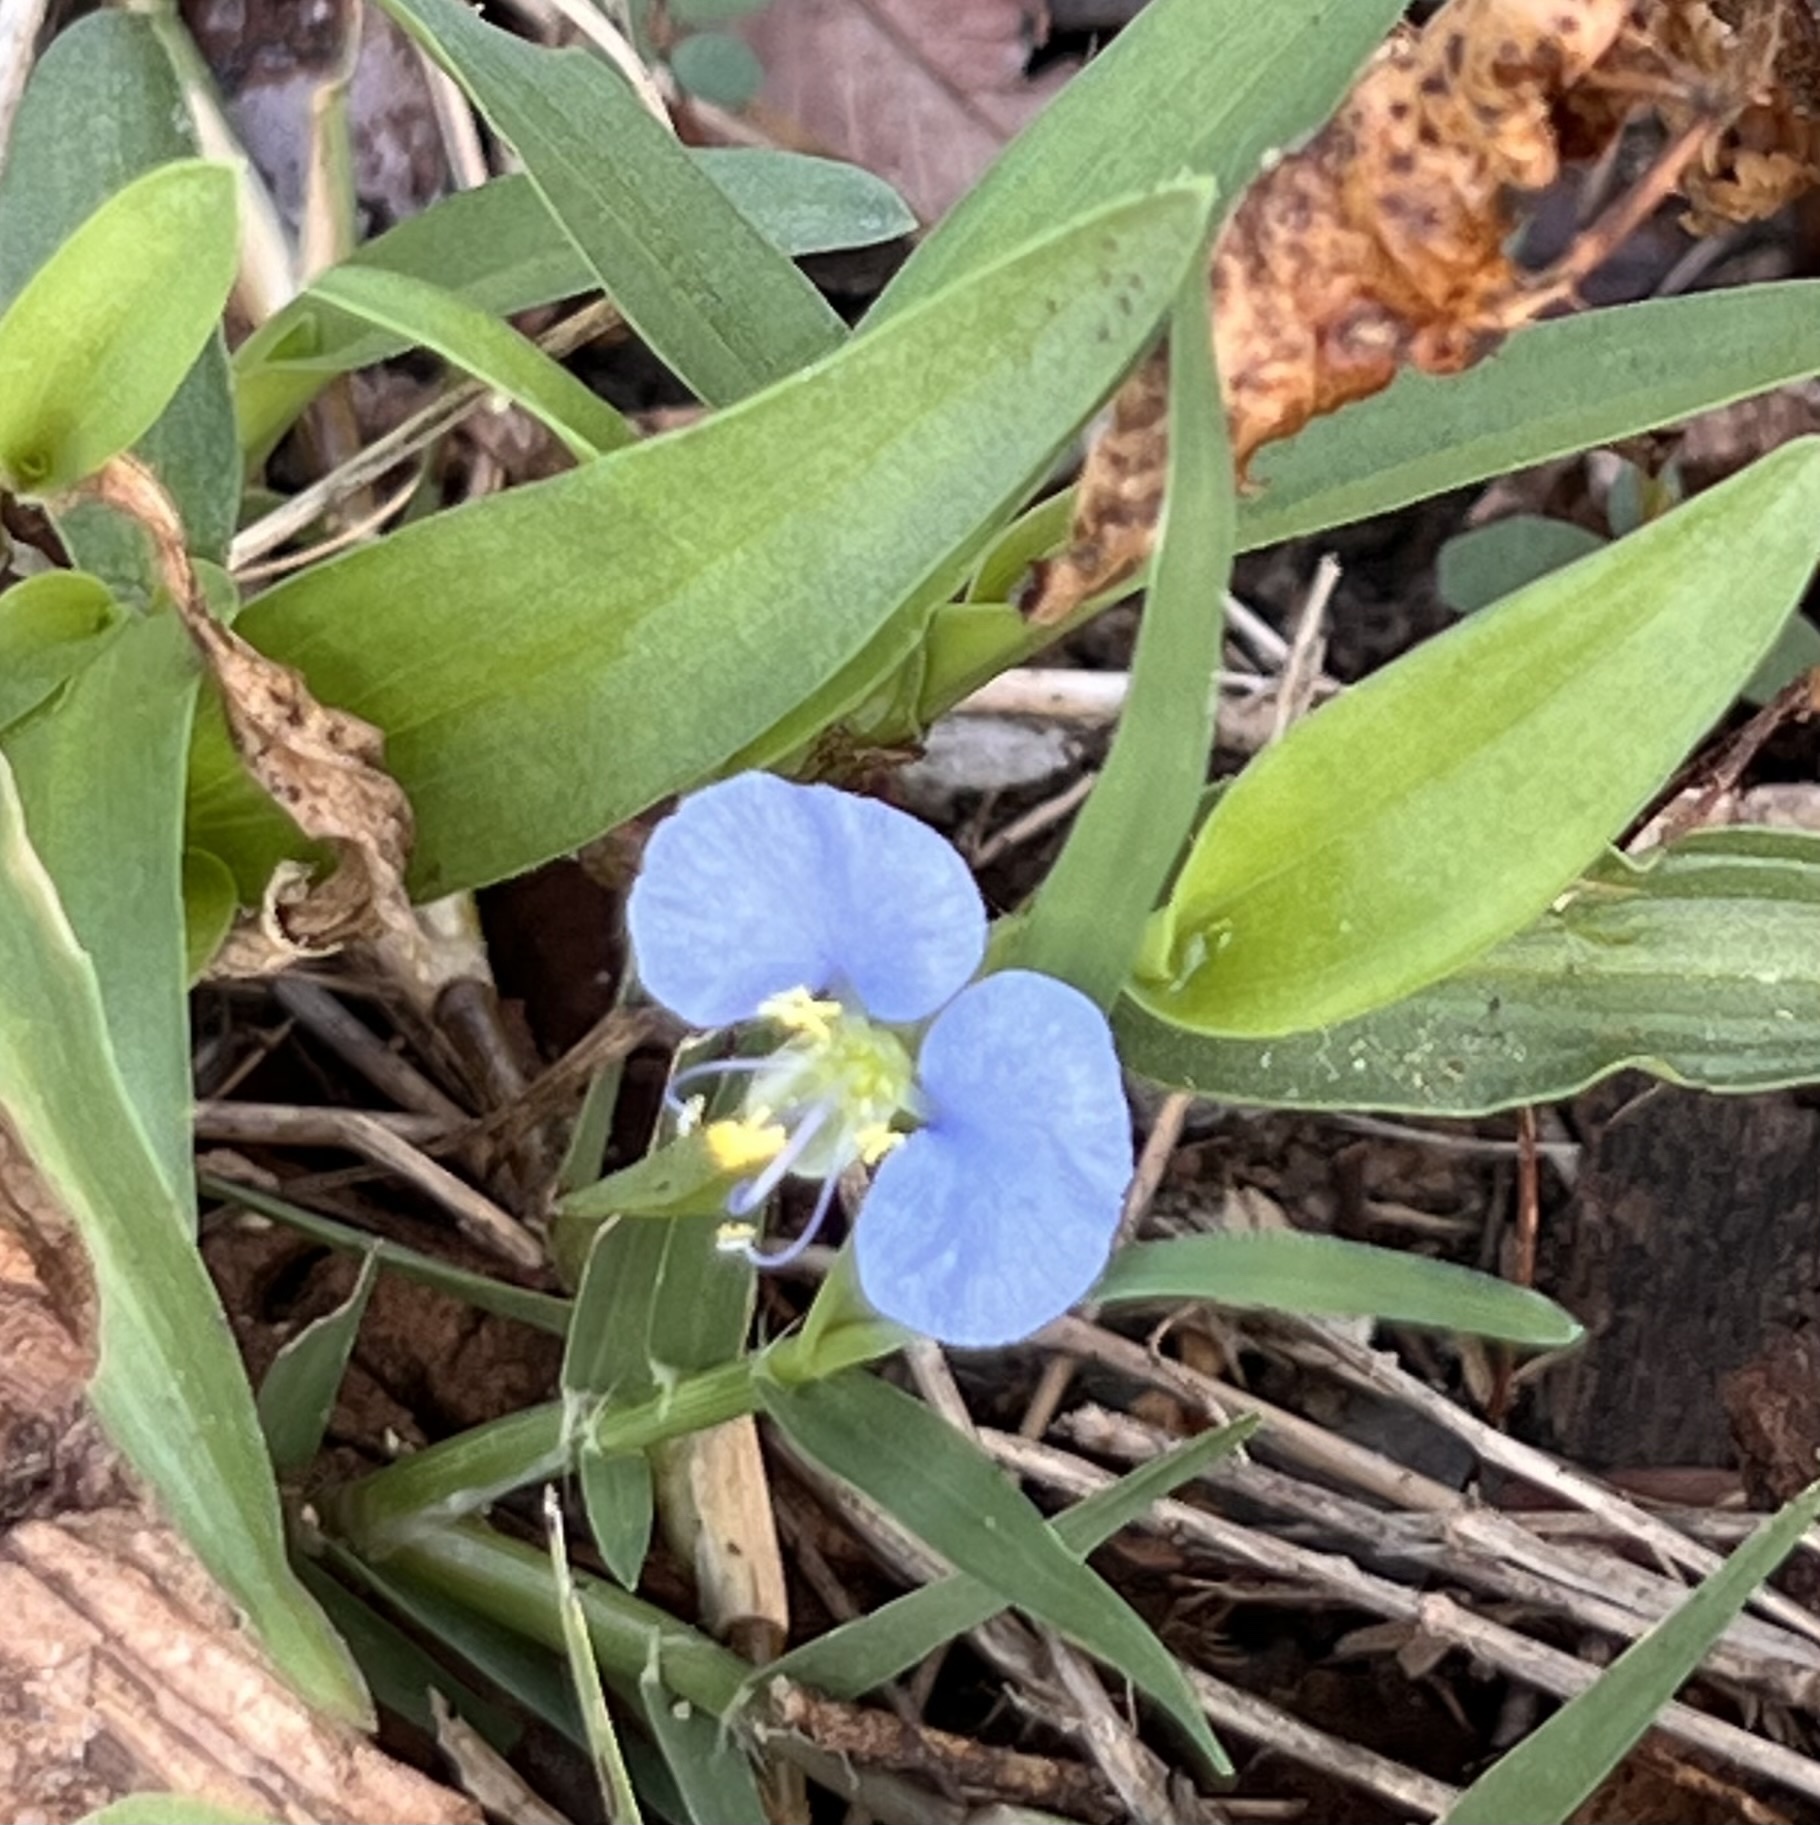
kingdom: Plantae
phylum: Tracheophyta
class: Liliopsida
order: Commelinales
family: Commelinaceae
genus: Commelina
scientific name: Commelina erecta
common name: Blousel blommetjie
